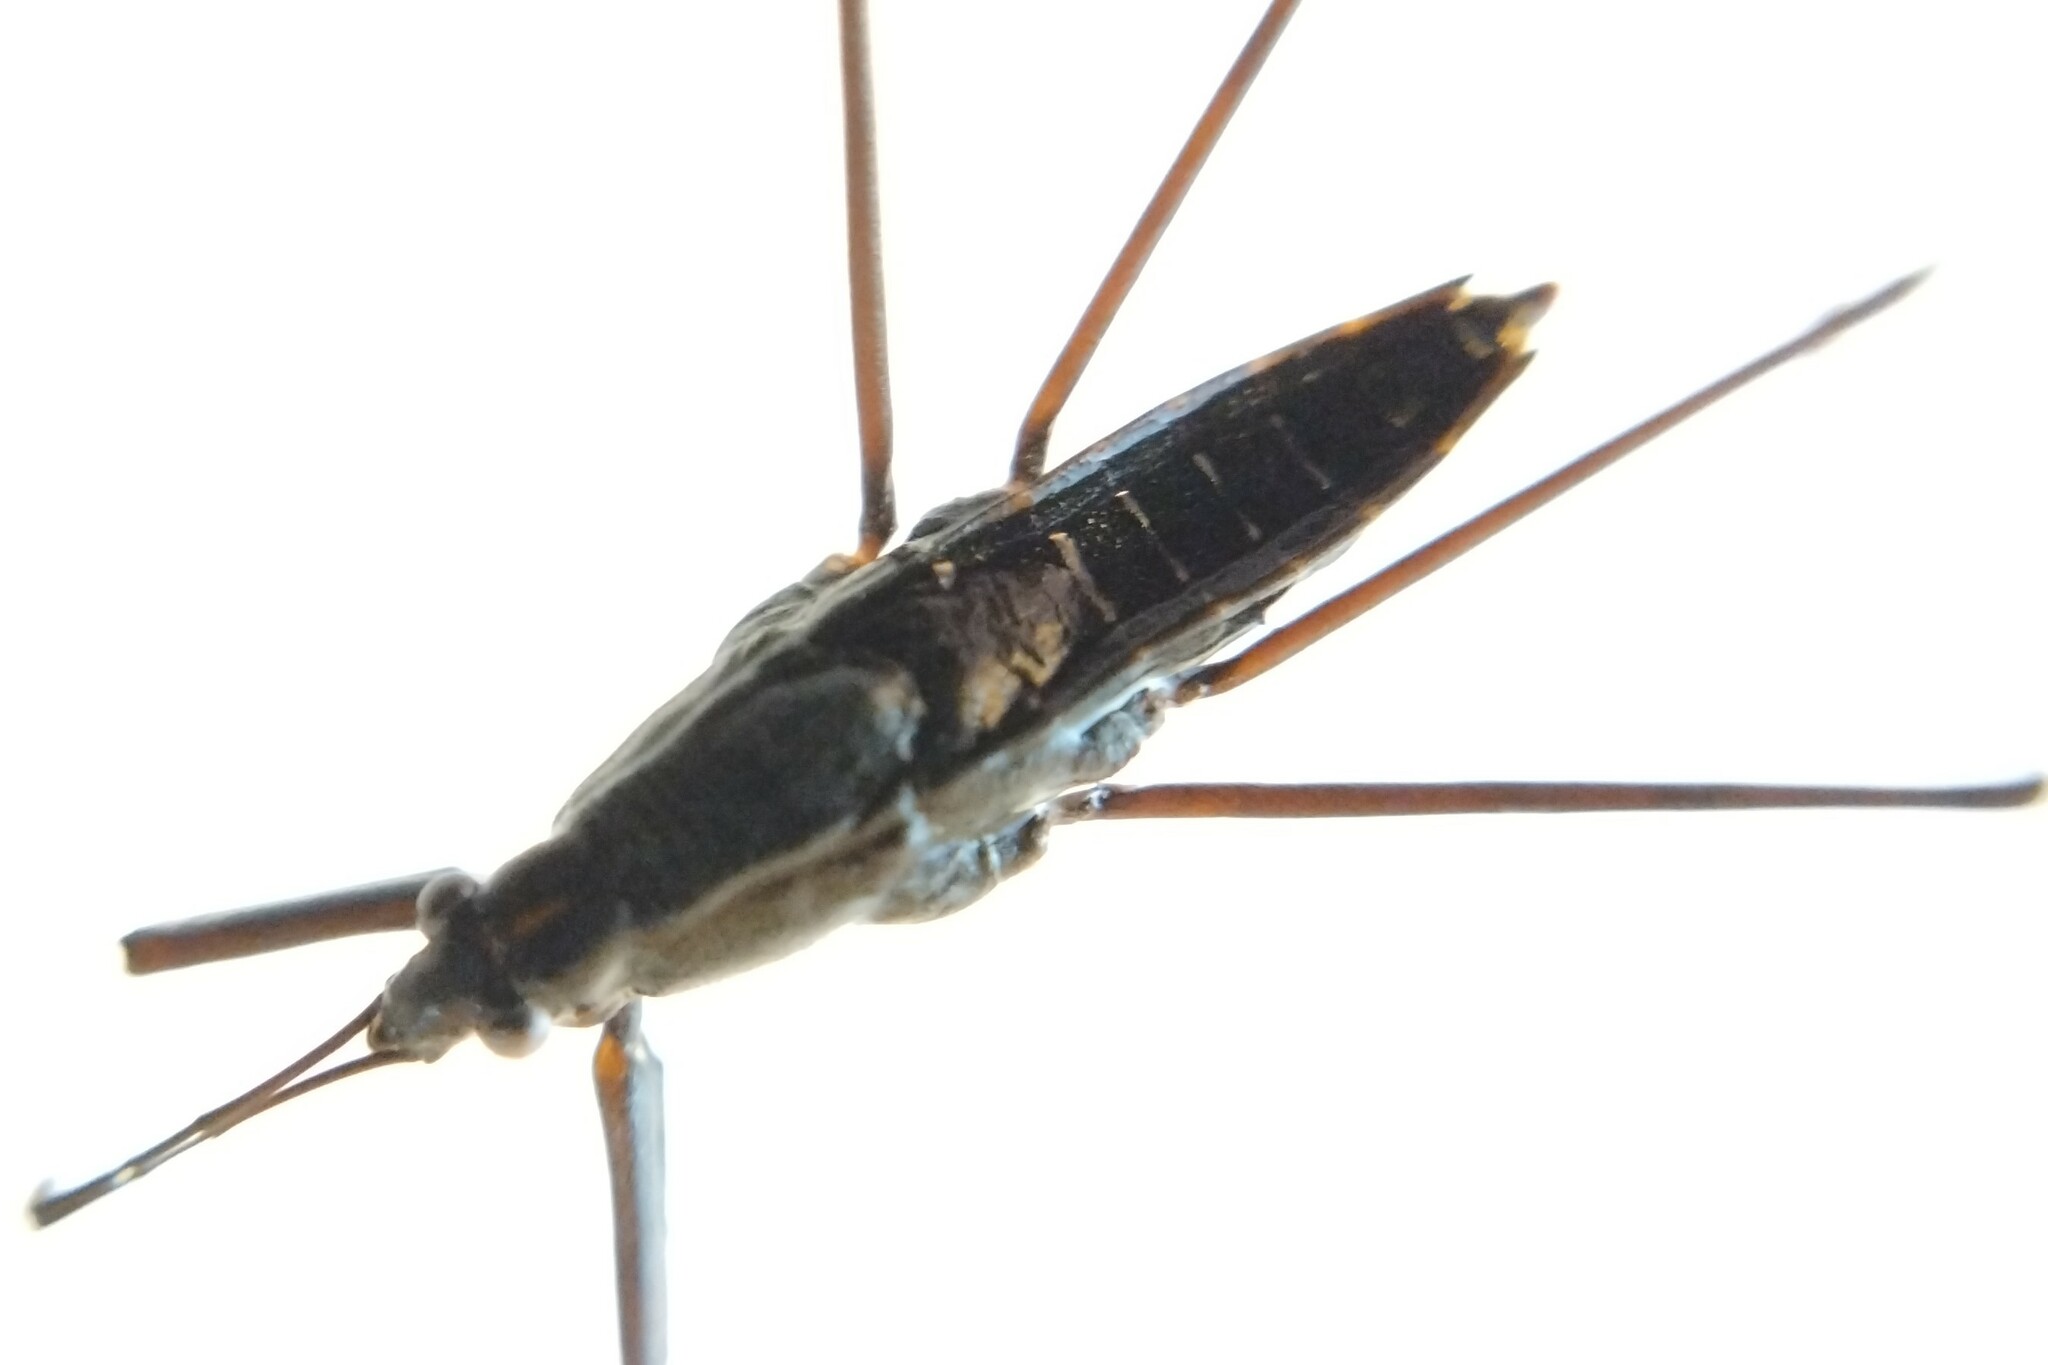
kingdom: Animalia
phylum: Arthropoda
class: Insecta
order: Hemiptera
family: Gerridae
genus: Aquarius
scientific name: Aquarius remigis
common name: Common water strider
